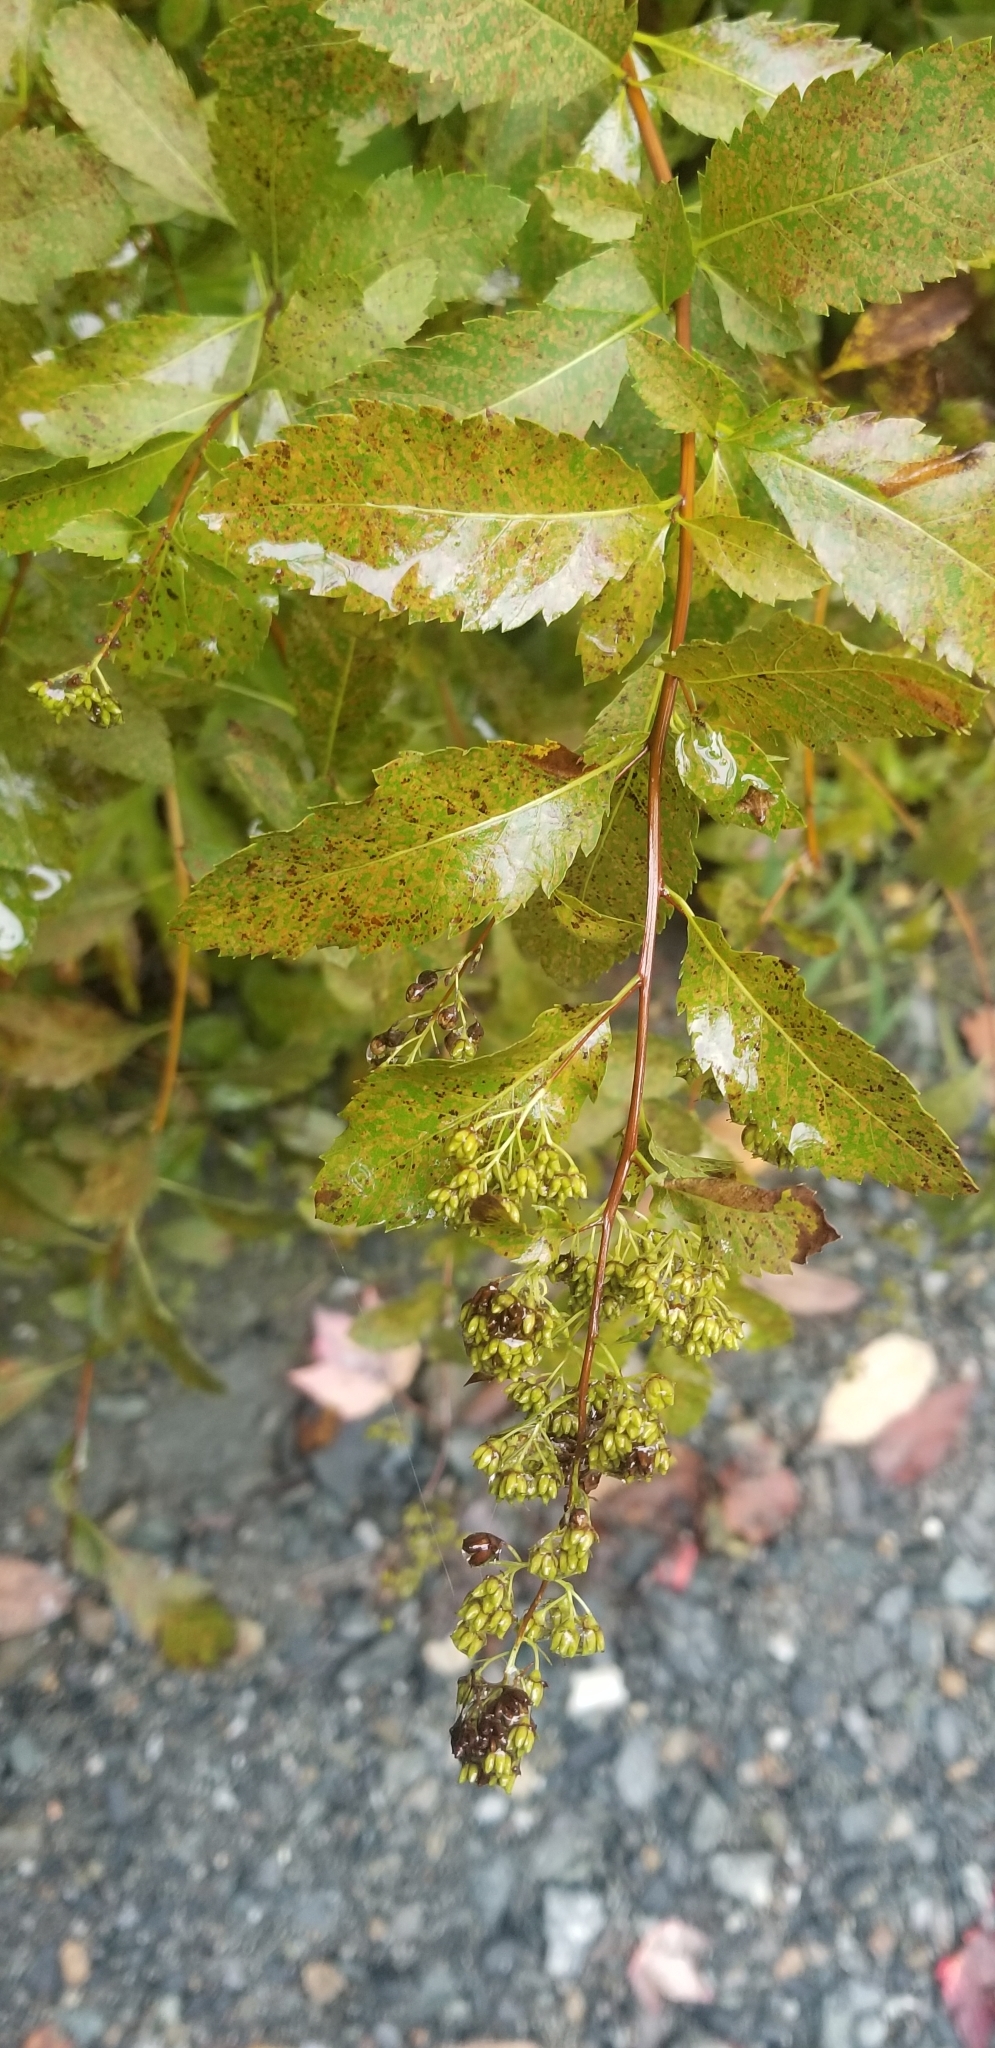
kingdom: Plantae
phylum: Tracheophyta
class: Magnoliopsida
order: Rosales
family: Rosaceae
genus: Spiraea
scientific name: Spiraea alba
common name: Pale bridewort
